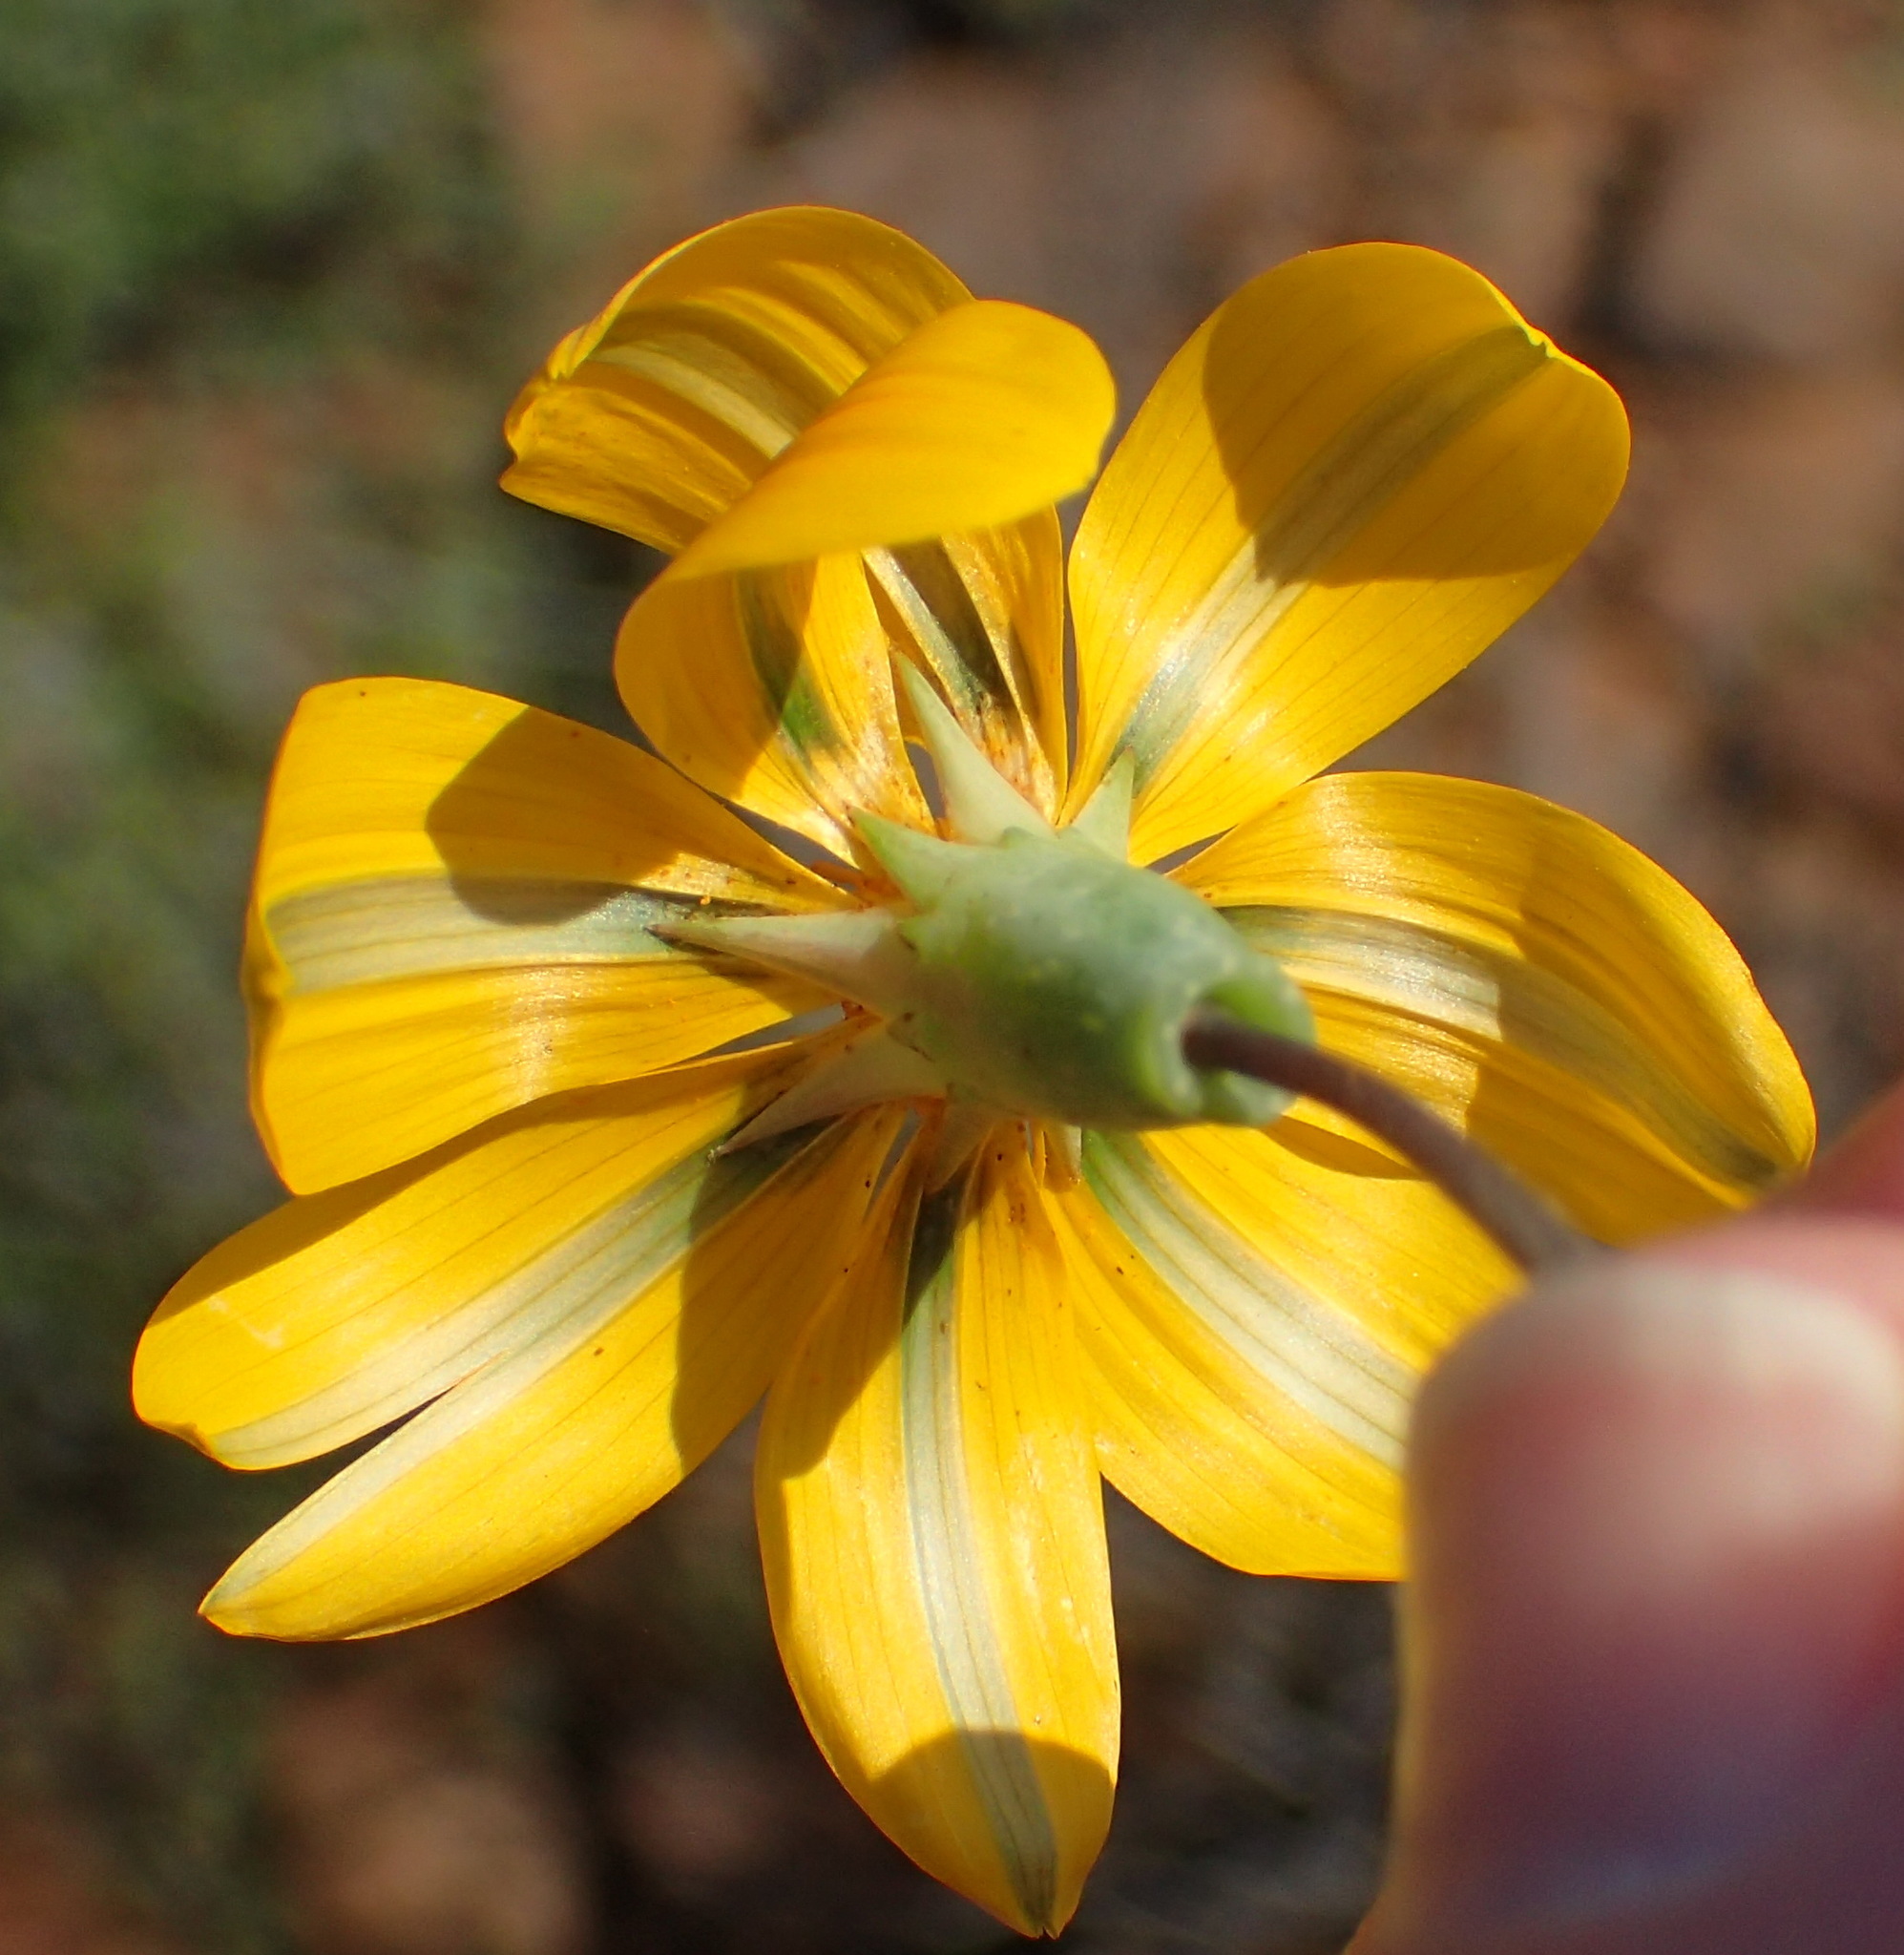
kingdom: Plantae
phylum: Tracheophyta
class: Magnoliopsida
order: Asterales
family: Asteraceae
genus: Gazania
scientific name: Gazania lichtensteinii
